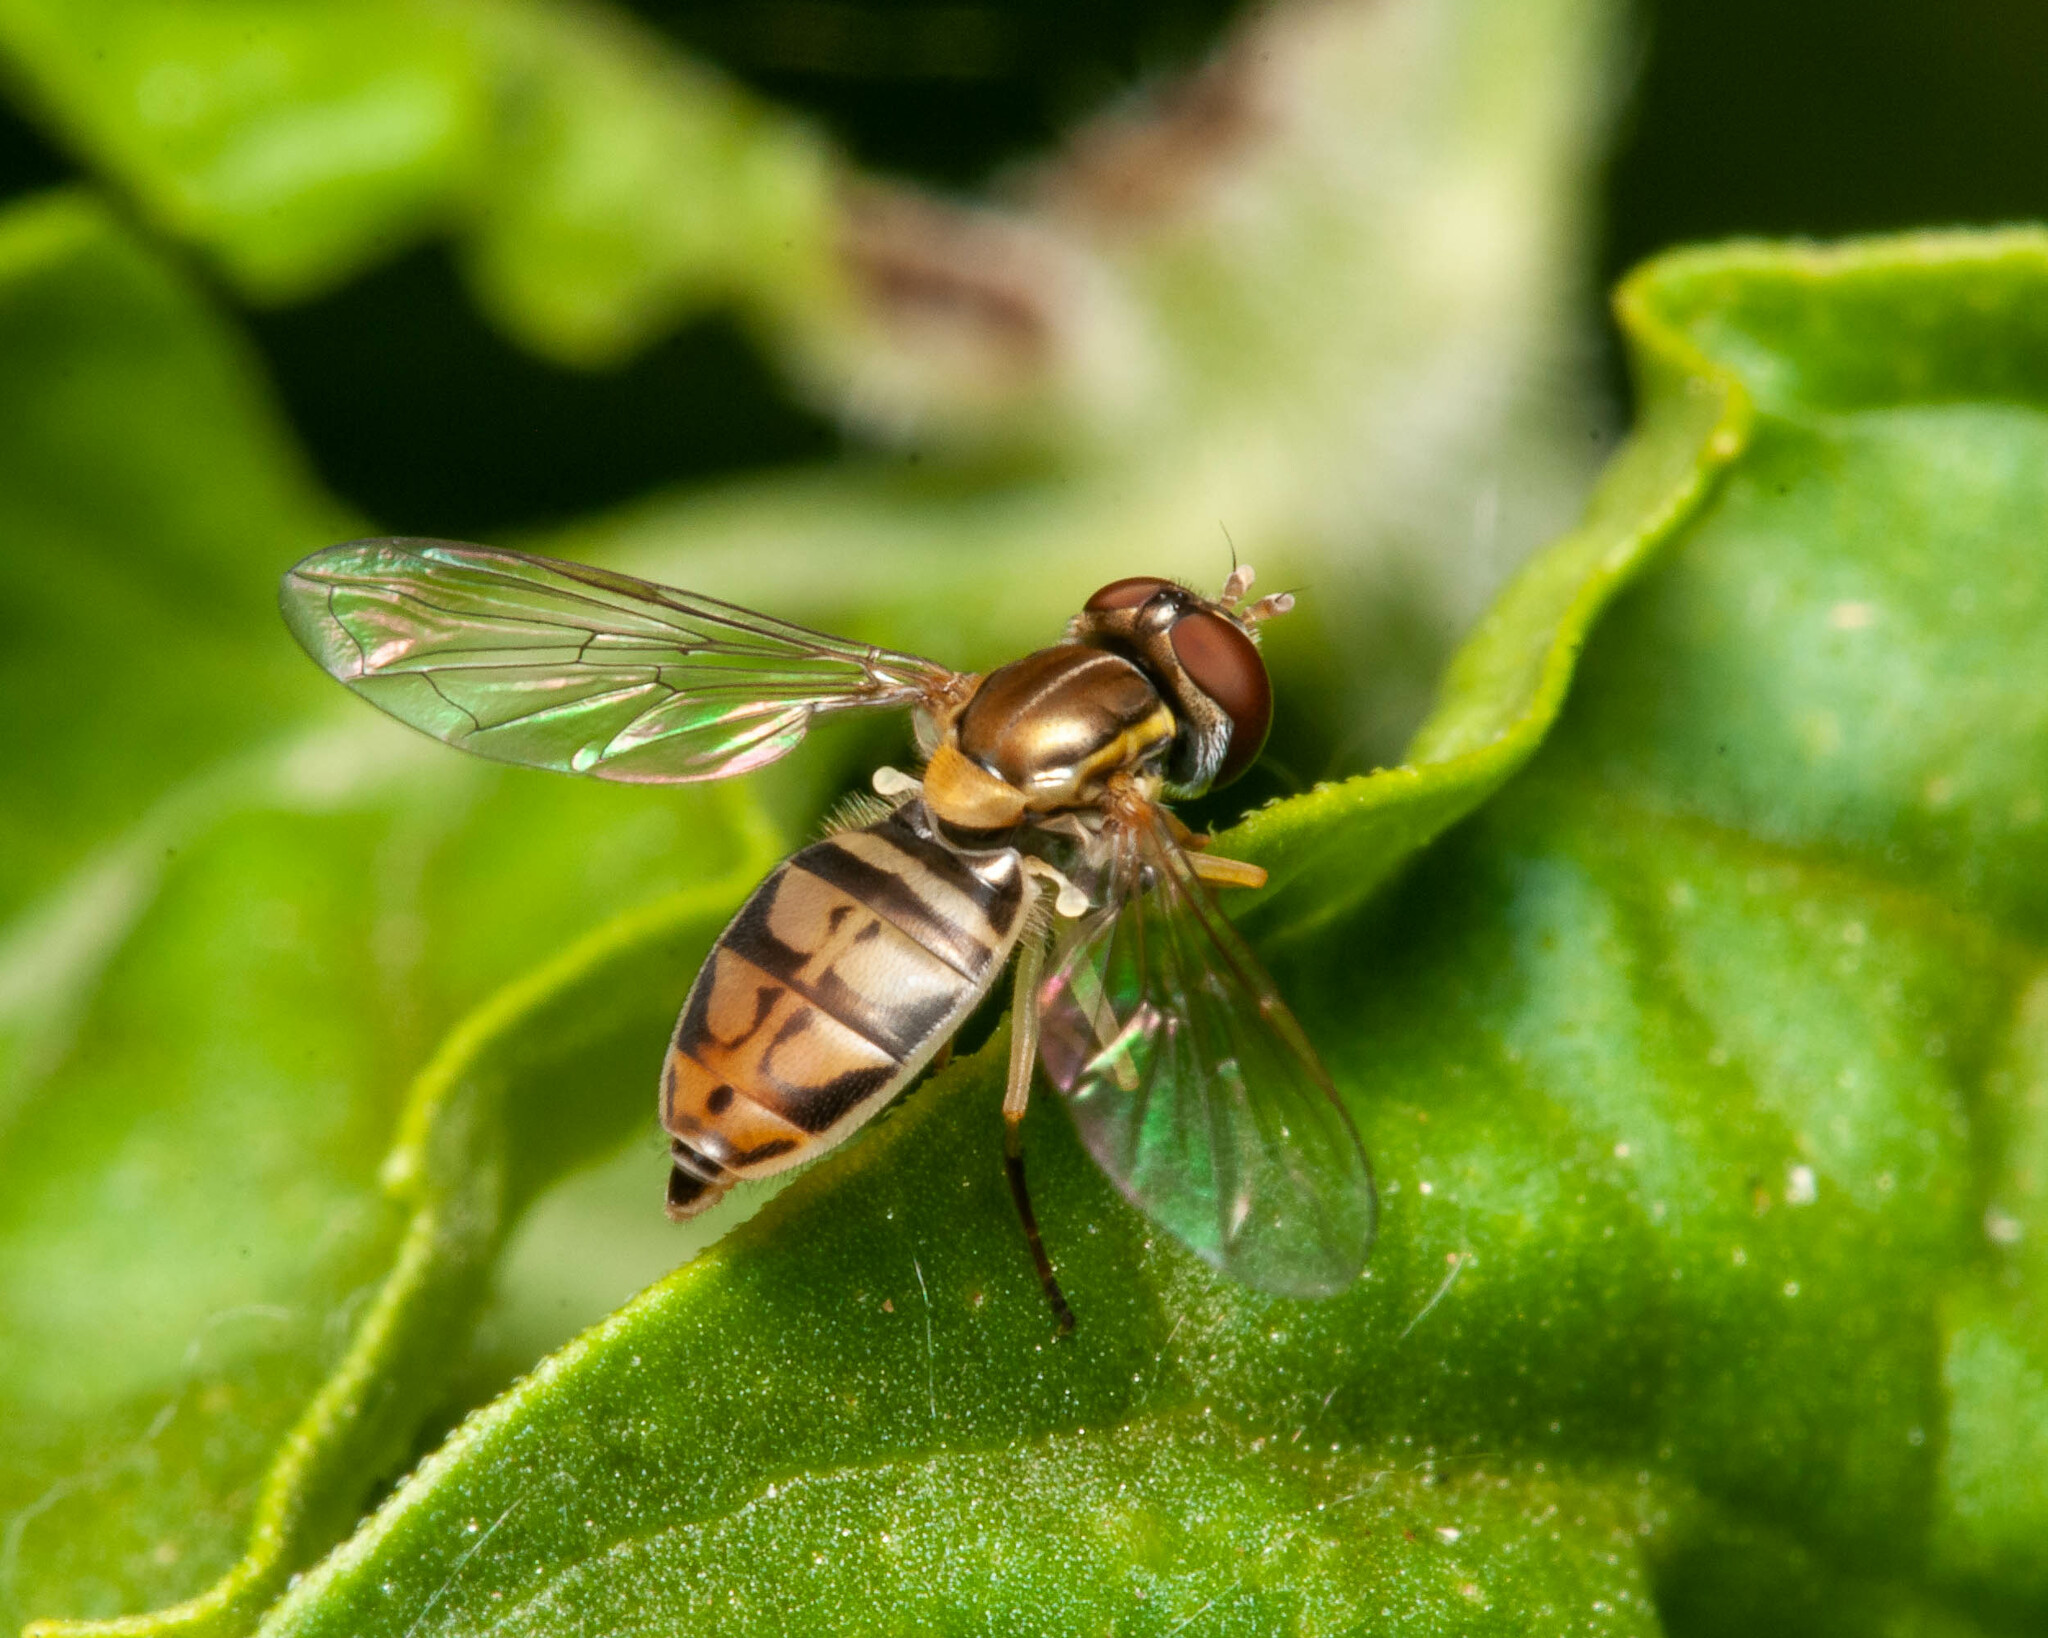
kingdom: Animalia
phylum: Arthropoda
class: Insecta
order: Diptera
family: Syrphidae
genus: Toxomerus
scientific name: Toxomerus marginatus
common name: Syrphid fly
